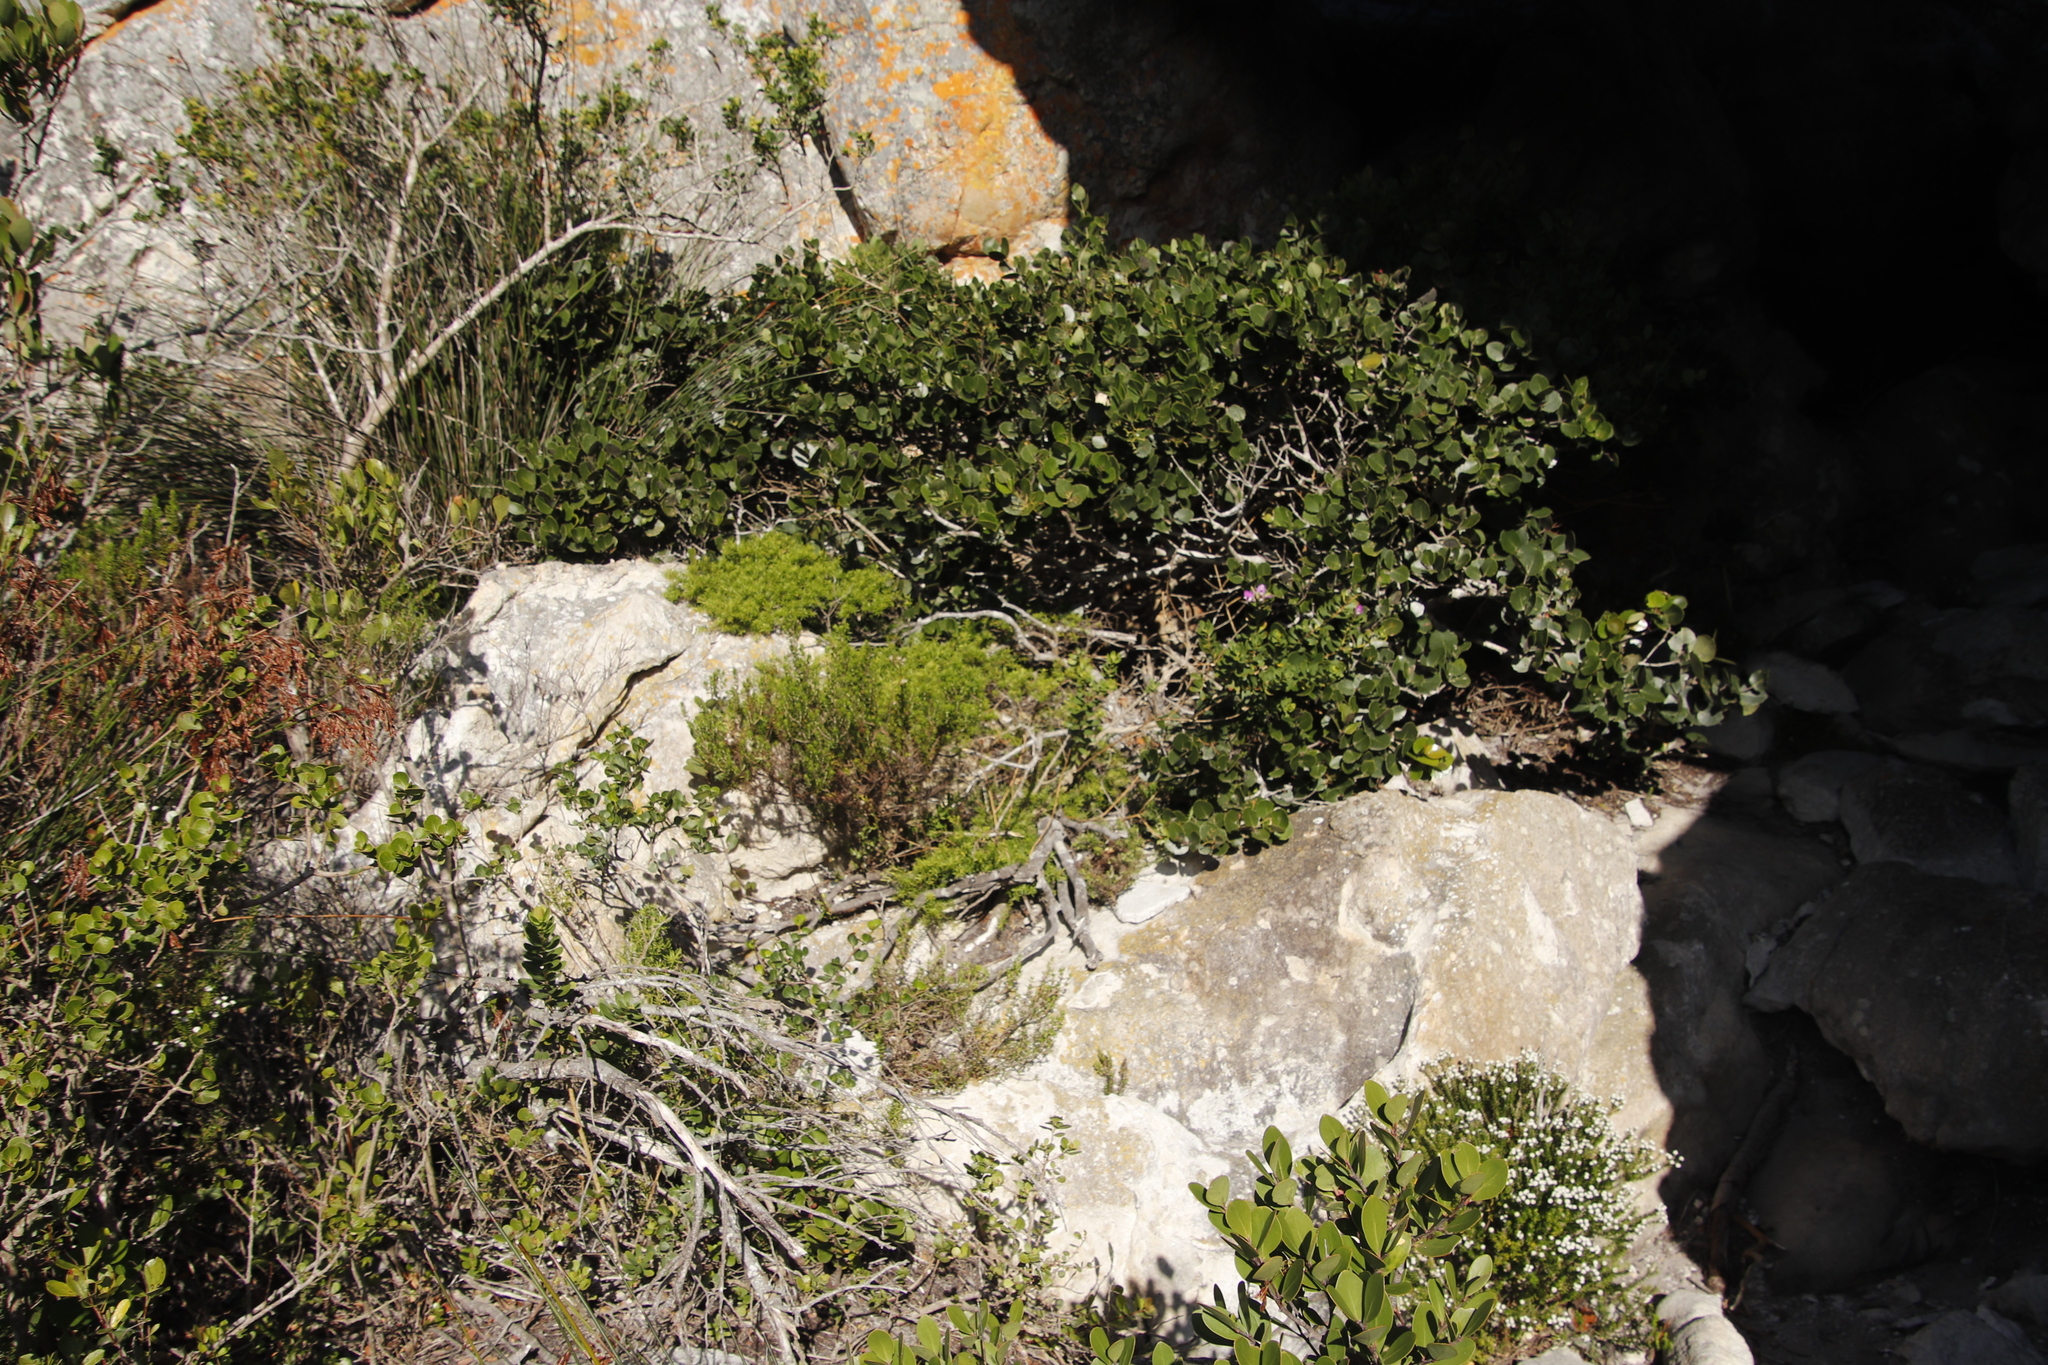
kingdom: Plantae
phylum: Tracheophyta
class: Magnoliopsida
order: Sapindales
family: Rutaceae
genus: Coleonema
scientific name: Coleonema album
